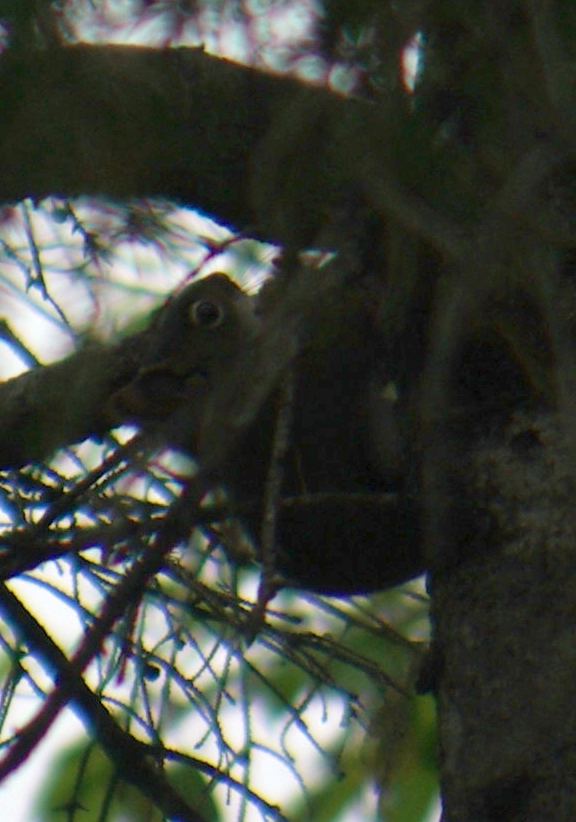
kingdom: Animalia
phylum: Chordata
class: Mammalia
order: Rodentia
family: Sciuridae
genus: Tamiasciurus
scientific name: Tamiasciurus hudsonicus
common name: Red squirrel
